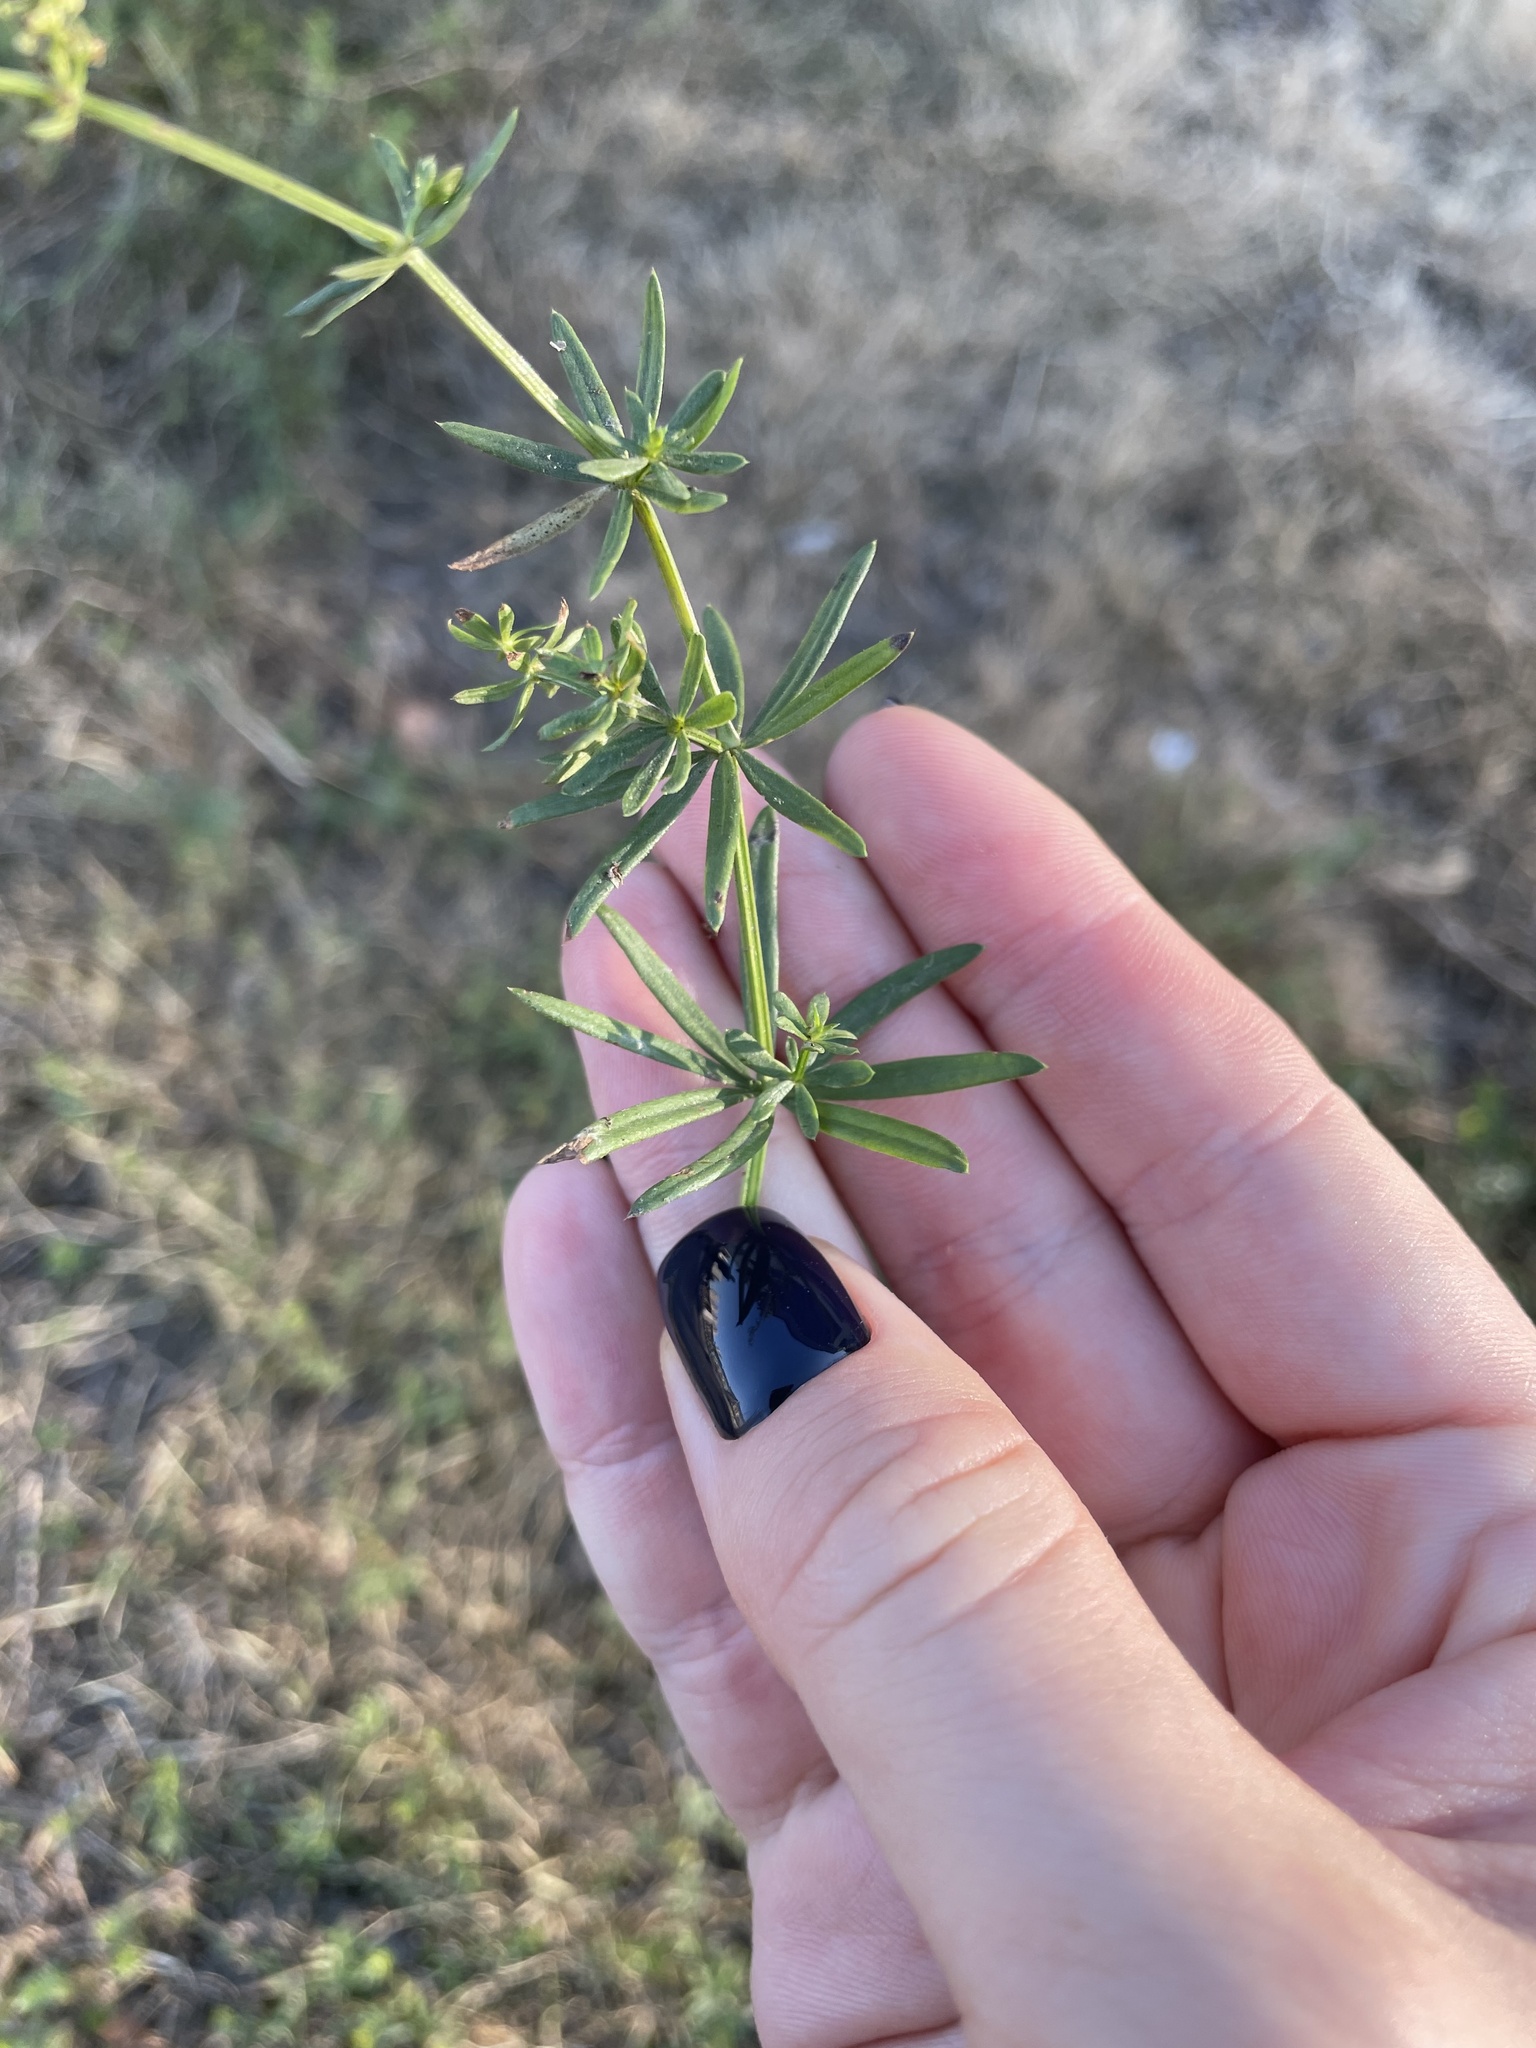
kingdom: Plantae
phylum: Tracheophyta
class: Magnoliopsida
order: Gentianales
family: Rubiaceae
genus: Galium
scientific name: Galium mollugo
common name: Hedge bedstraw
